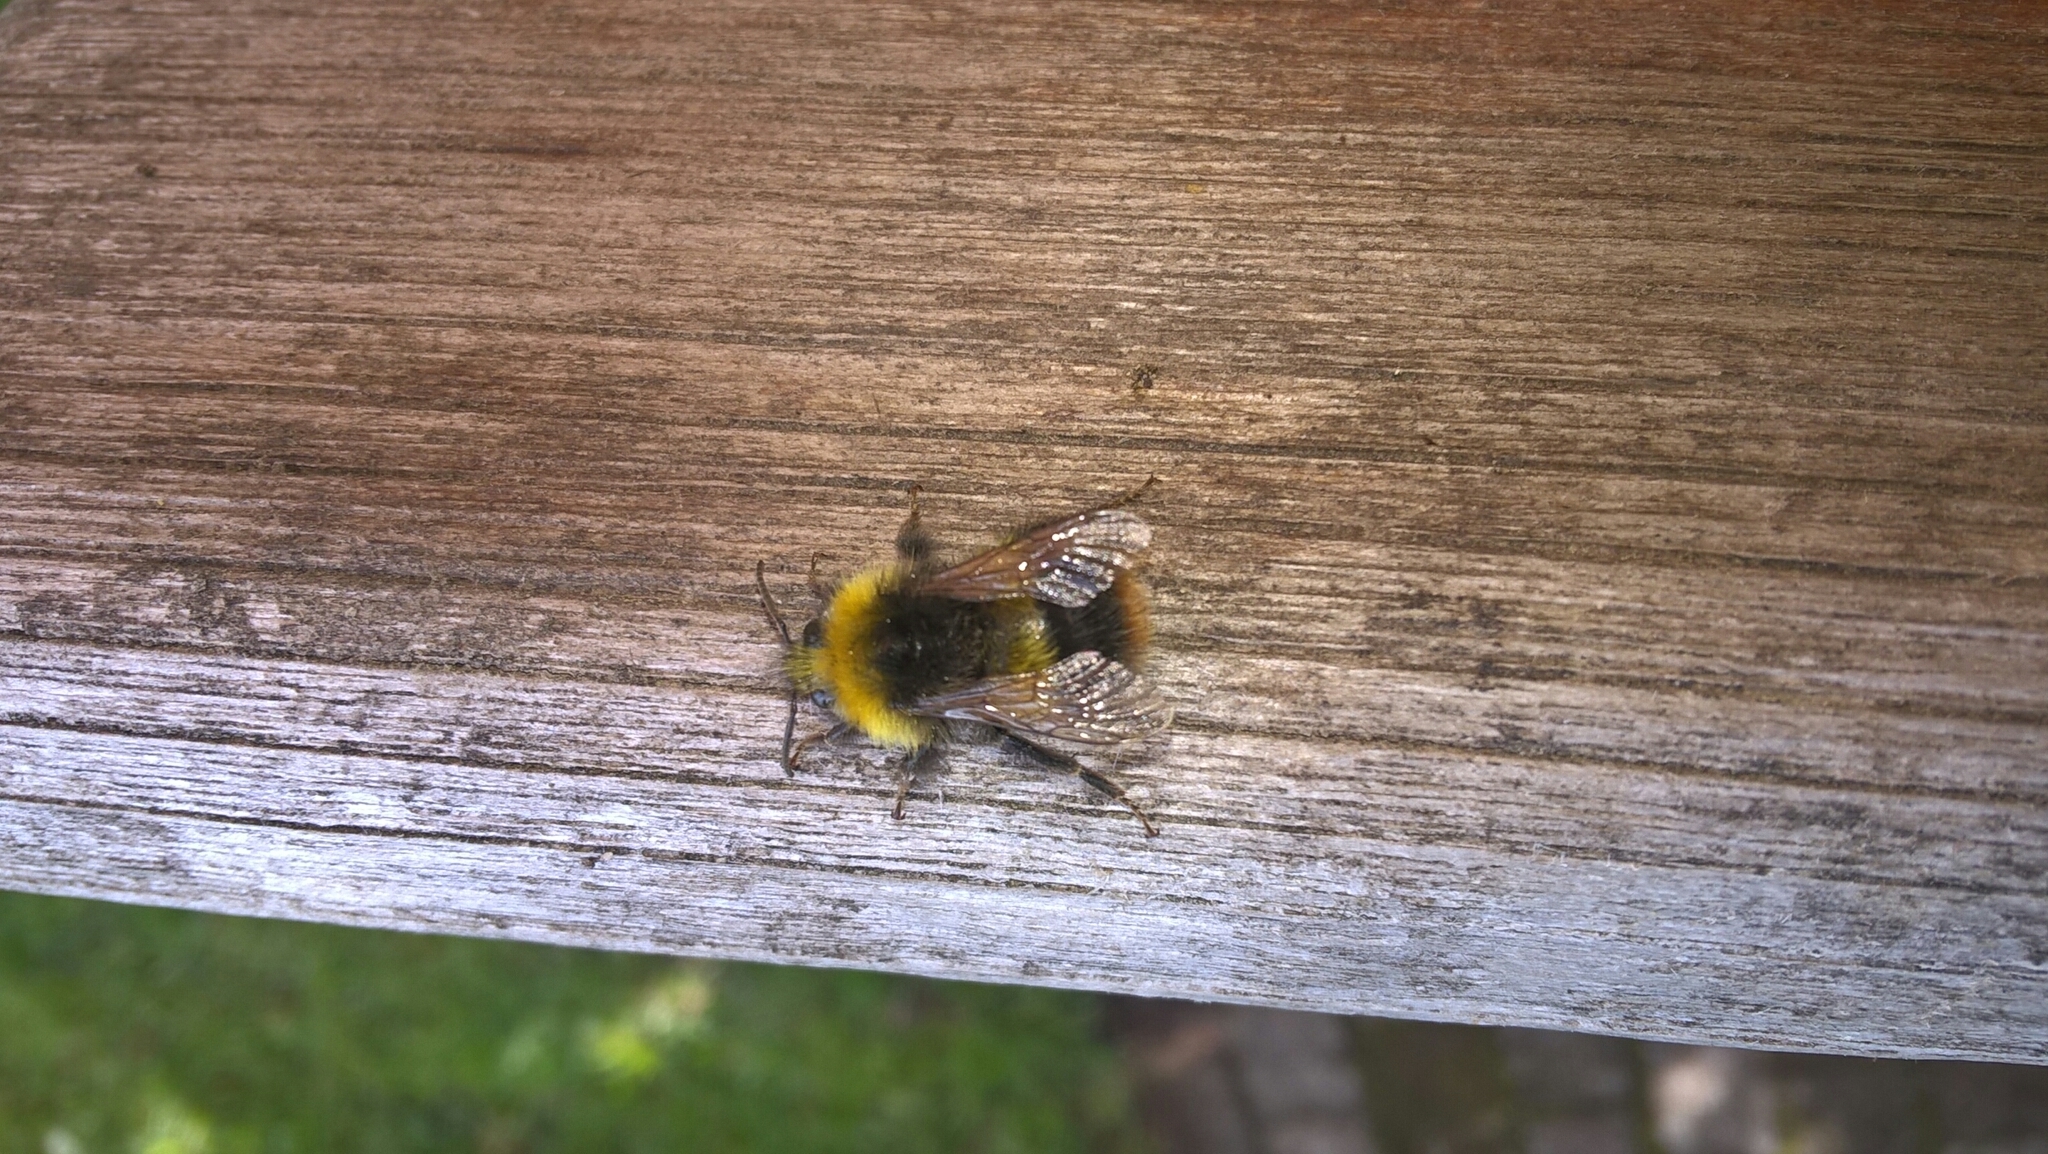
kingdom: Animalia
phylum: Arthropoda
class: Insecta
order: Hymenoptera
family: Apidae
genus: Bombus
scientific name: Bombus pratorum
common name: Early humble-bee
